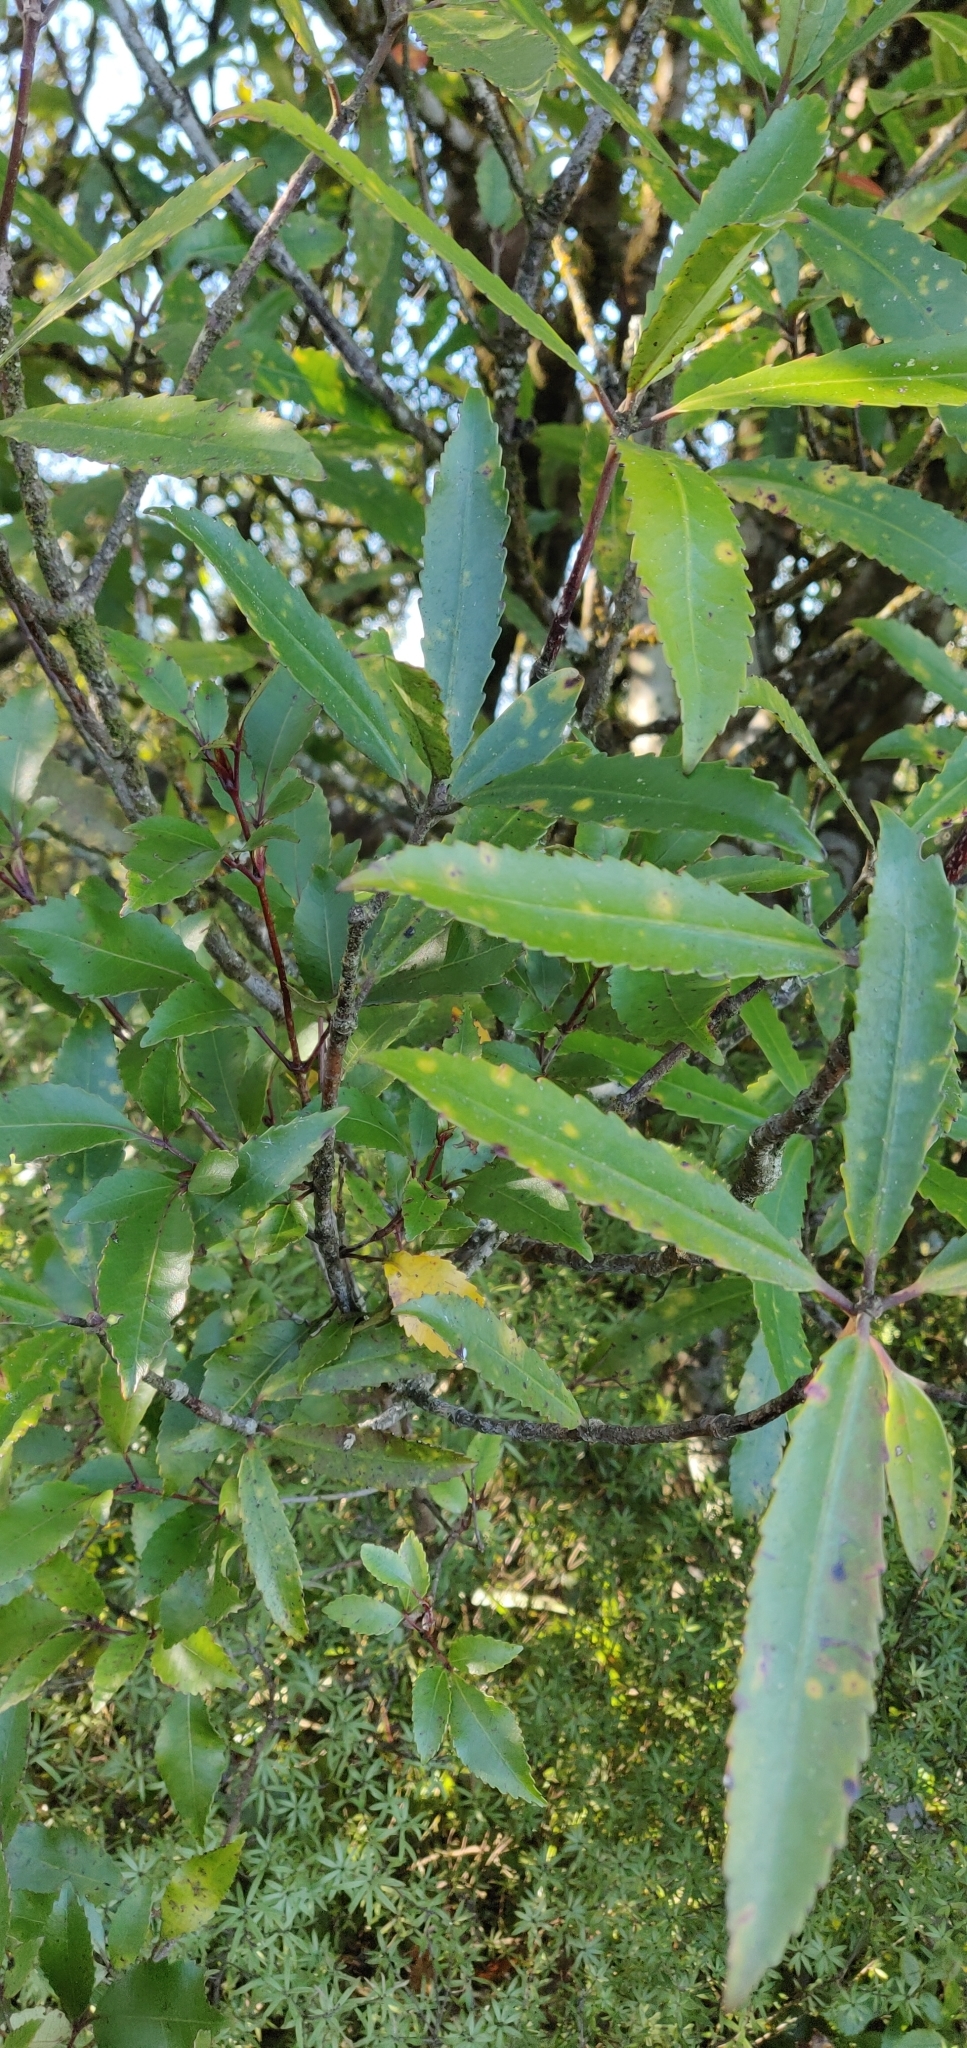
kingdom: Plantae
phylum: Tracheophyta
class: Magnoliopsida
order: Crossosomatales
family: Ixerbaceae
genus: Ixerba
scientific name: Ixerba brexioides
